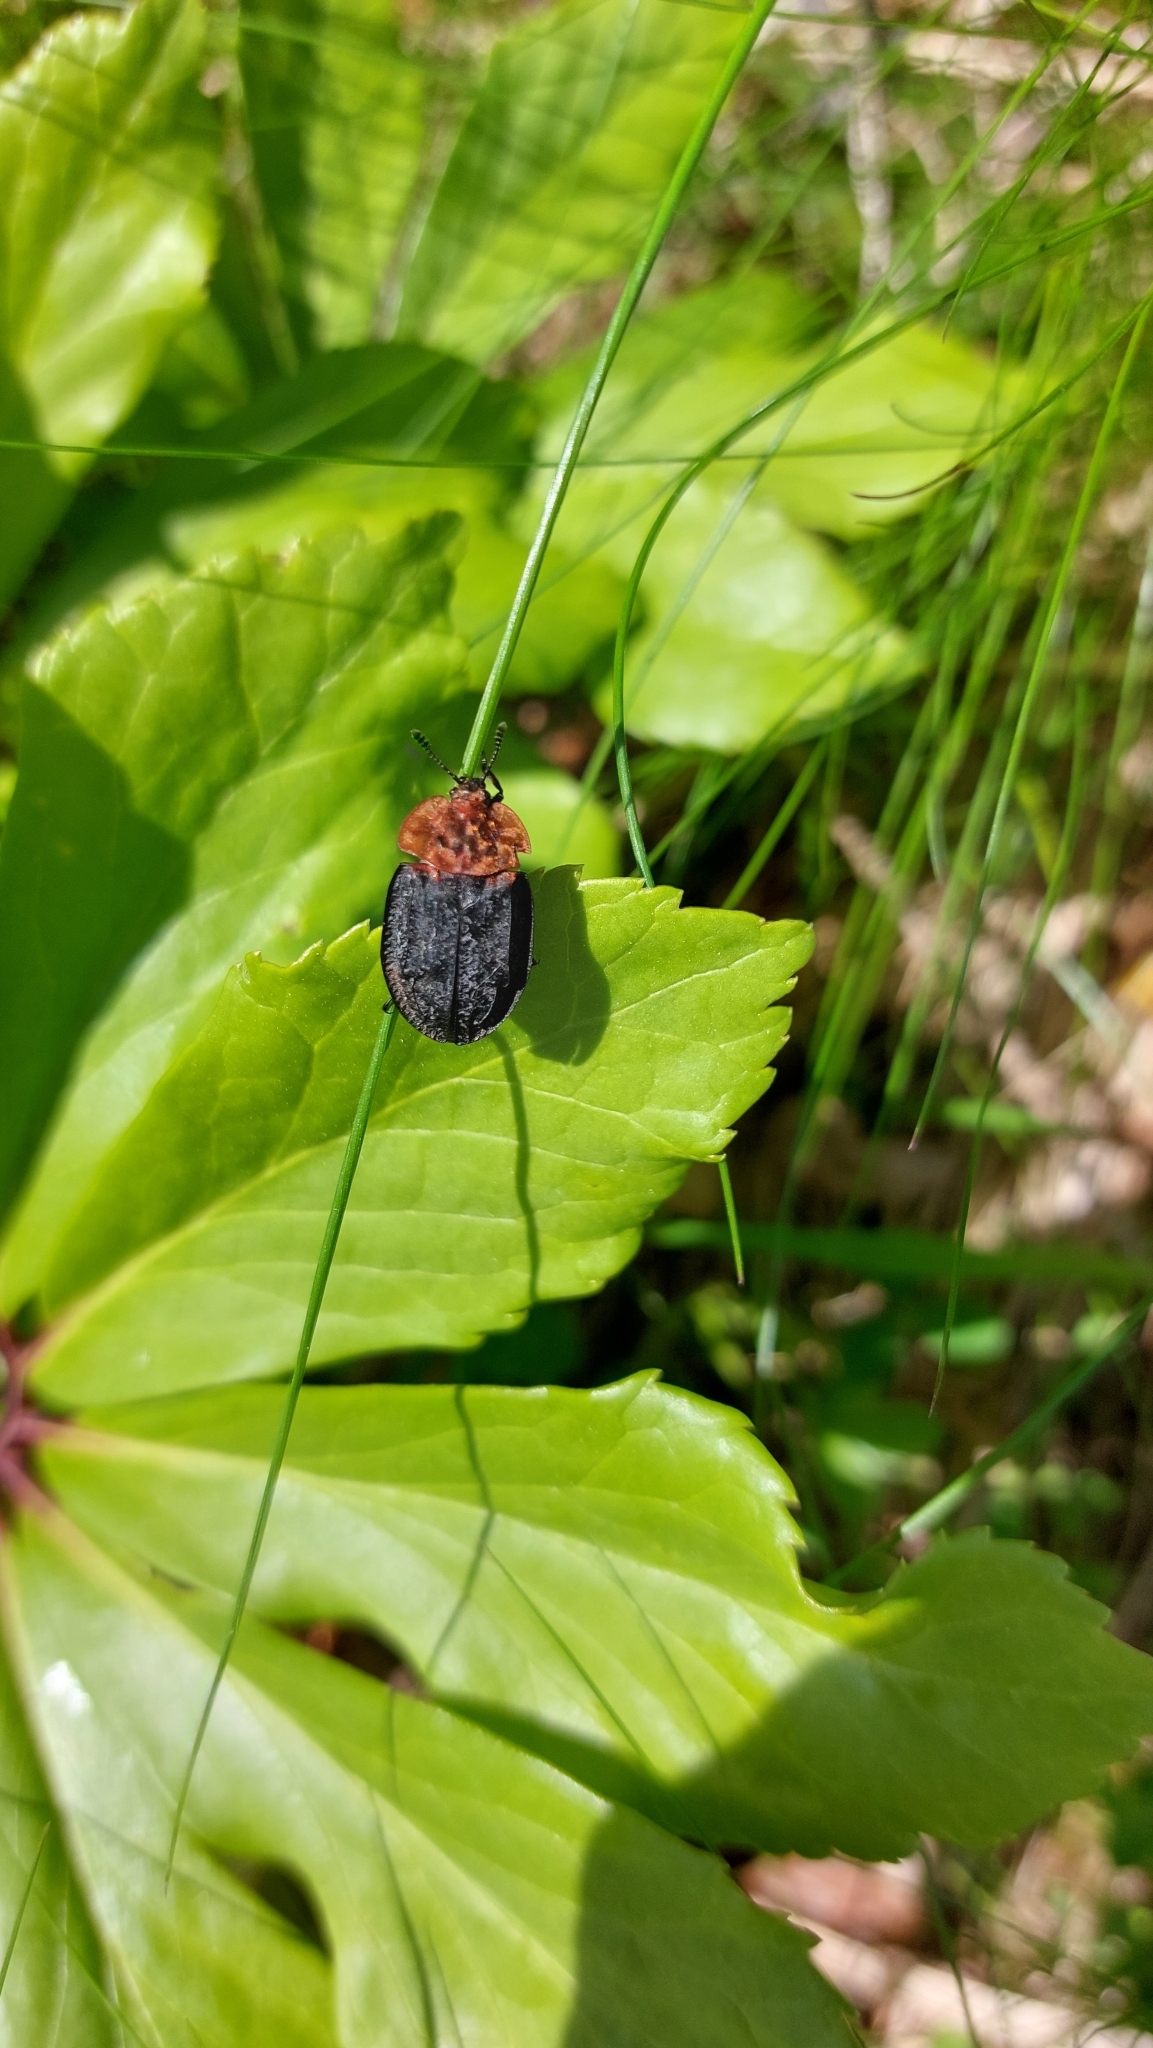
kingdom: Animalia
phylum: Arthropoda
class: Insecta
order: Coleoptera
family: Staphylinidae
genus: Oiceoptoma
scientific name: Oiceoptoma thoracicum
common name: Red-breasted carrion beetle
